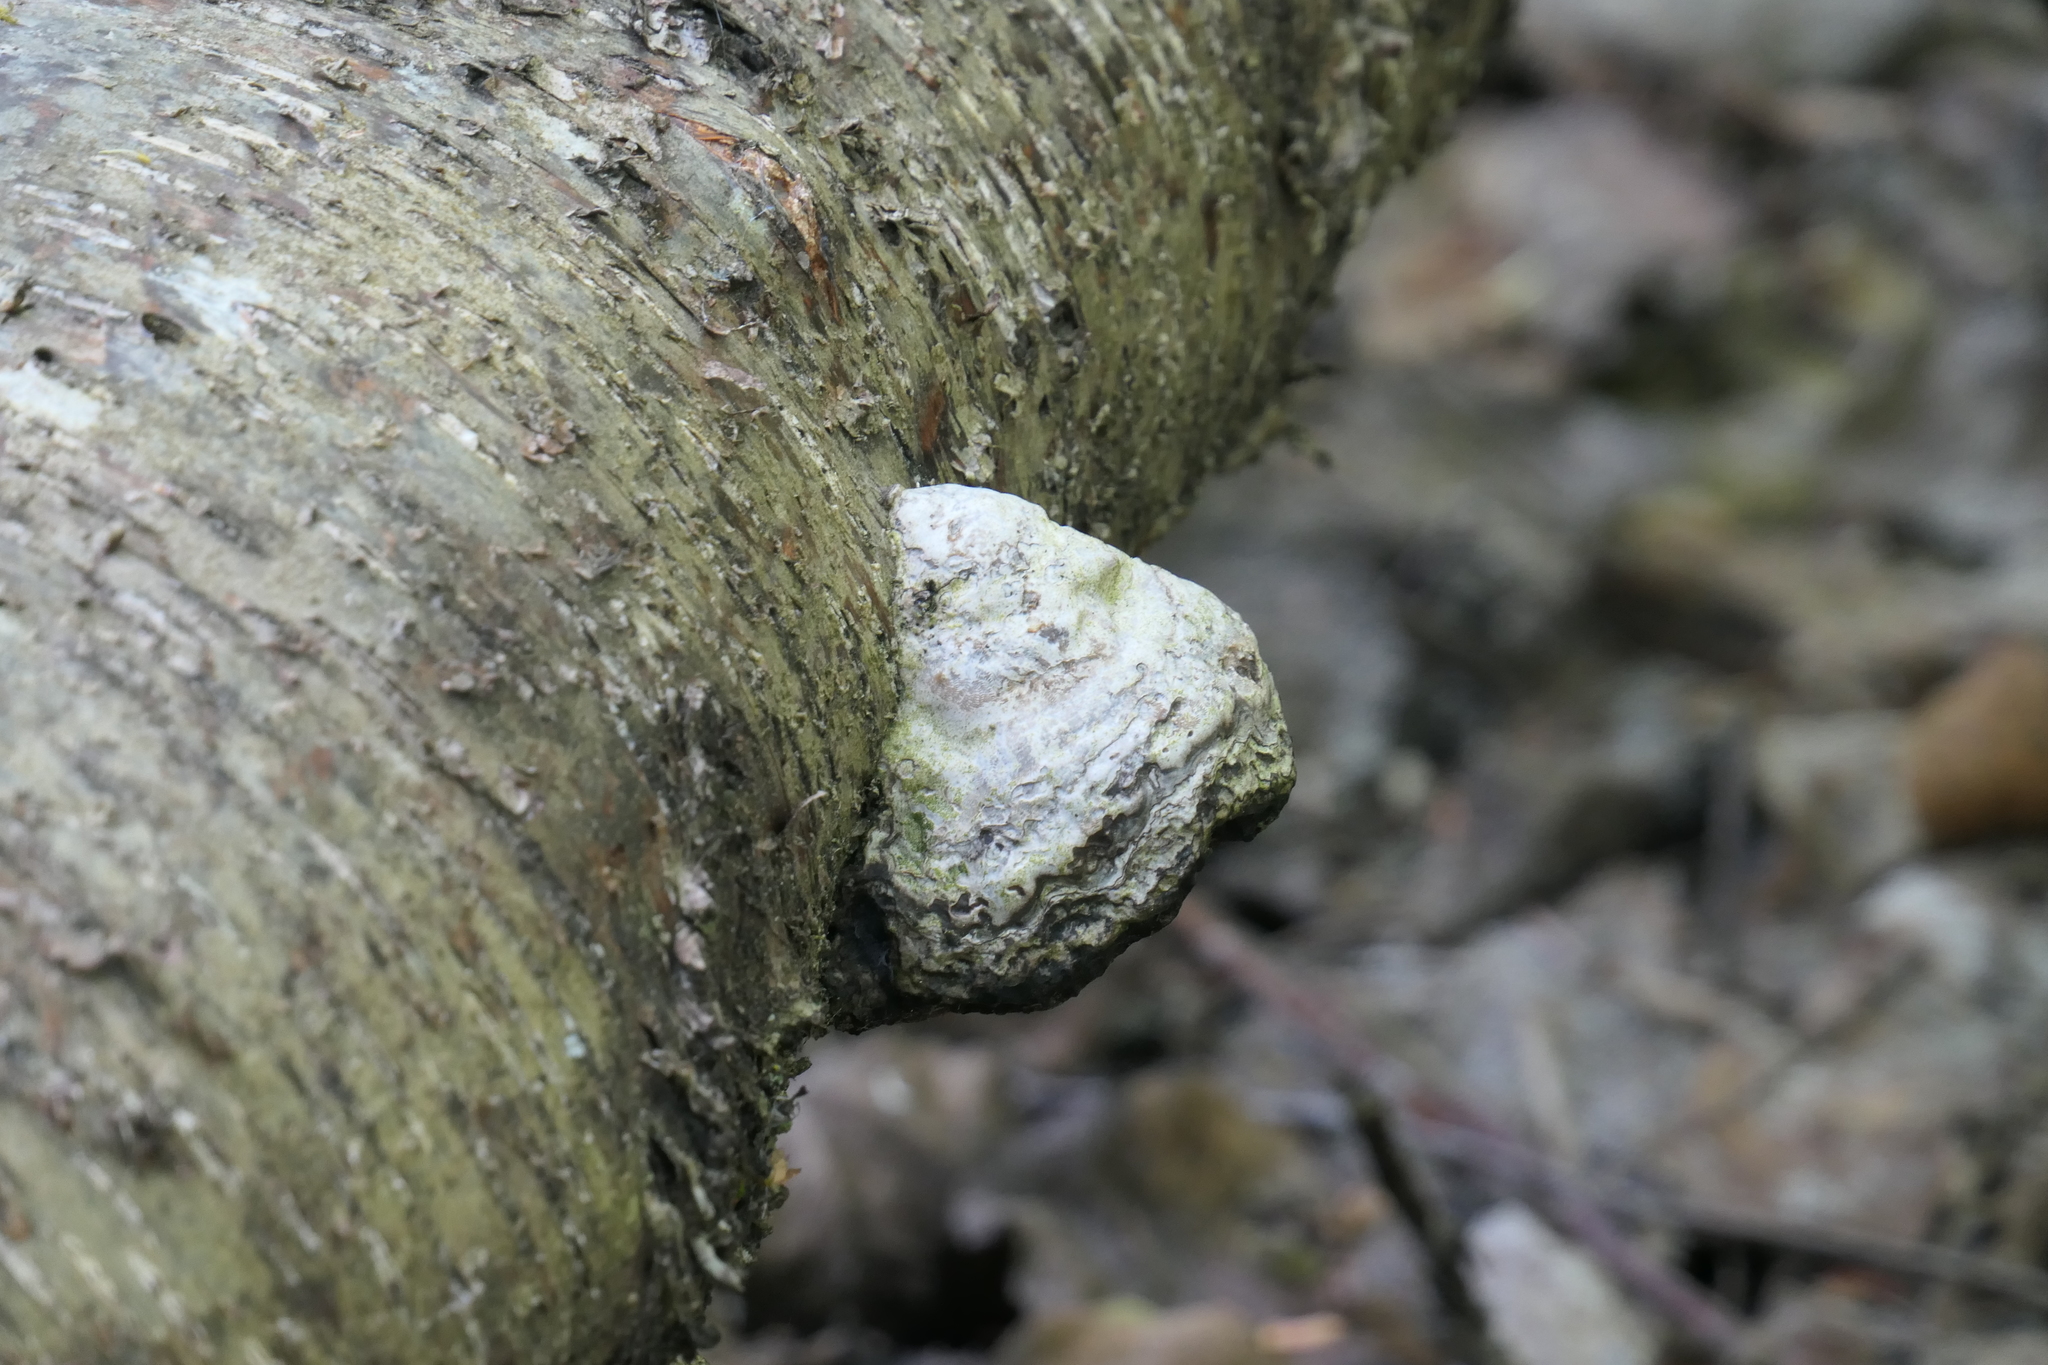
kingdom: Fungi
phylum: Basidiomycota
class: Agaricomycetes
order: Polyporales
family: Polyporaceae
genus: Fomes
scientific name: Fomes fomentarius
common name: Hoof fungus
